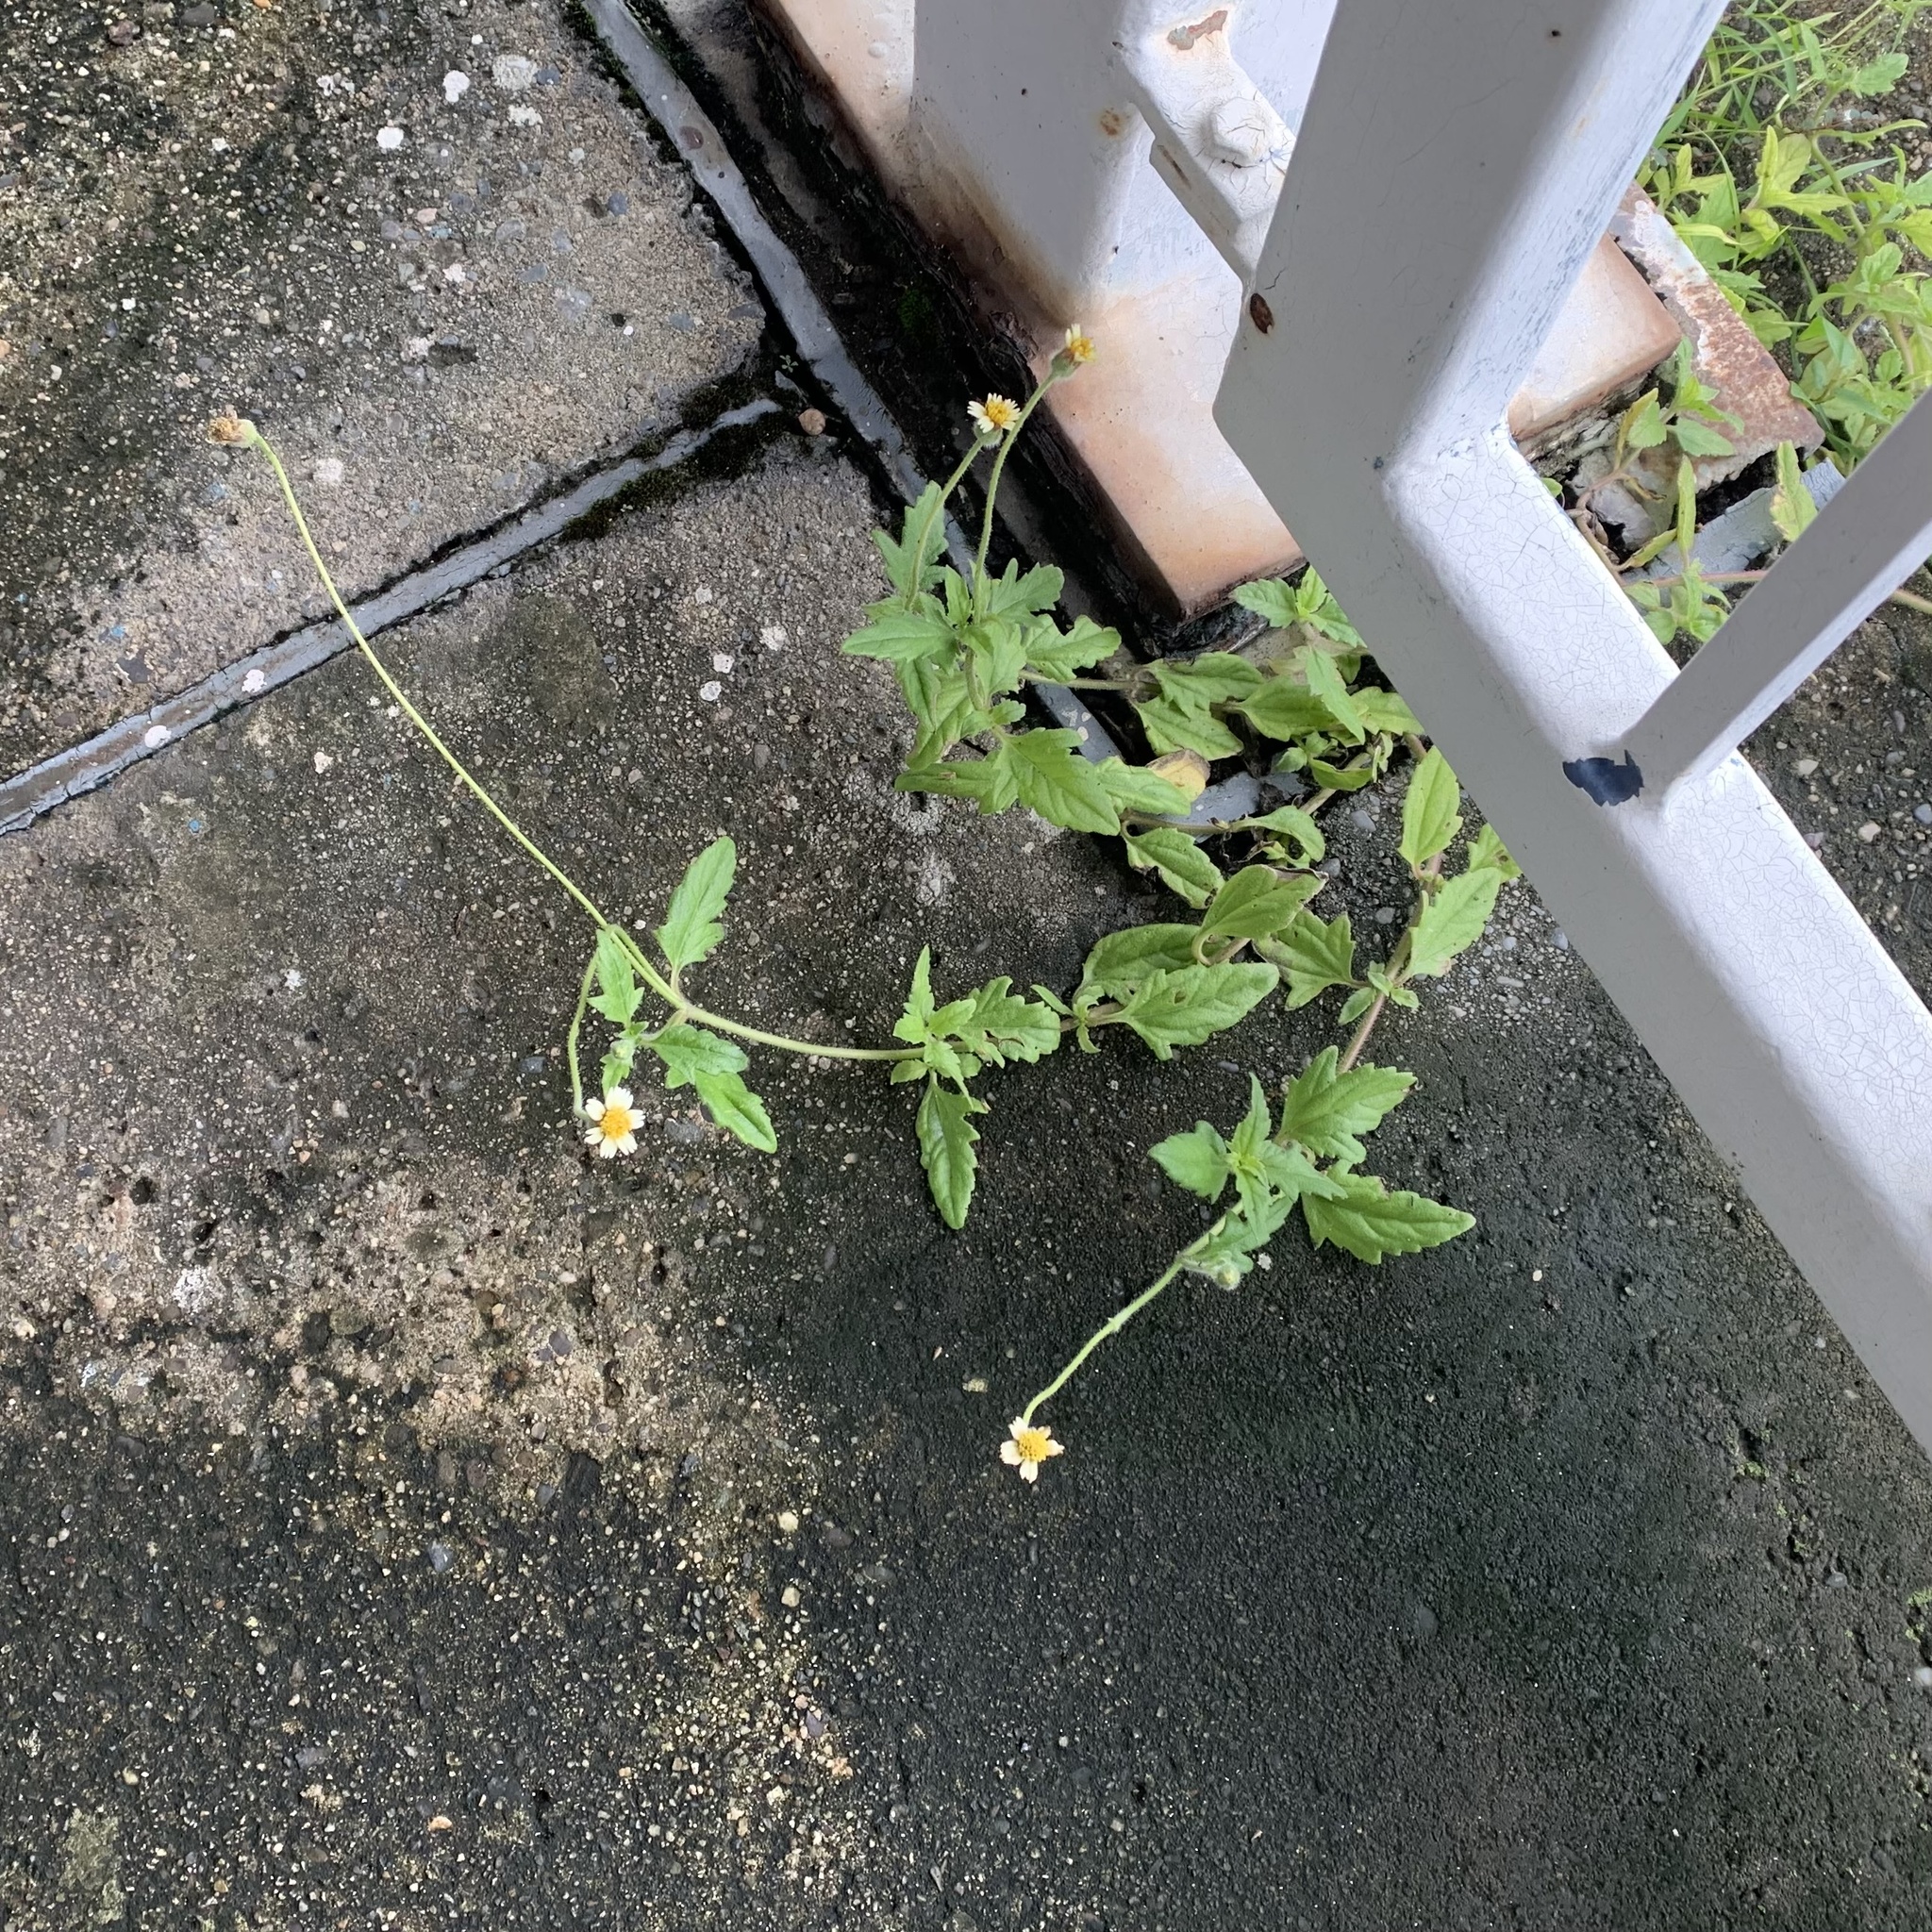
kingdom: Plantae
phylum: Tracheophyta
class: Magnoliopsida
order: Asterales
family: Asteraceae
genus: Tridax
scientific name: Tridax procumbens
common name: Coatbuttons
